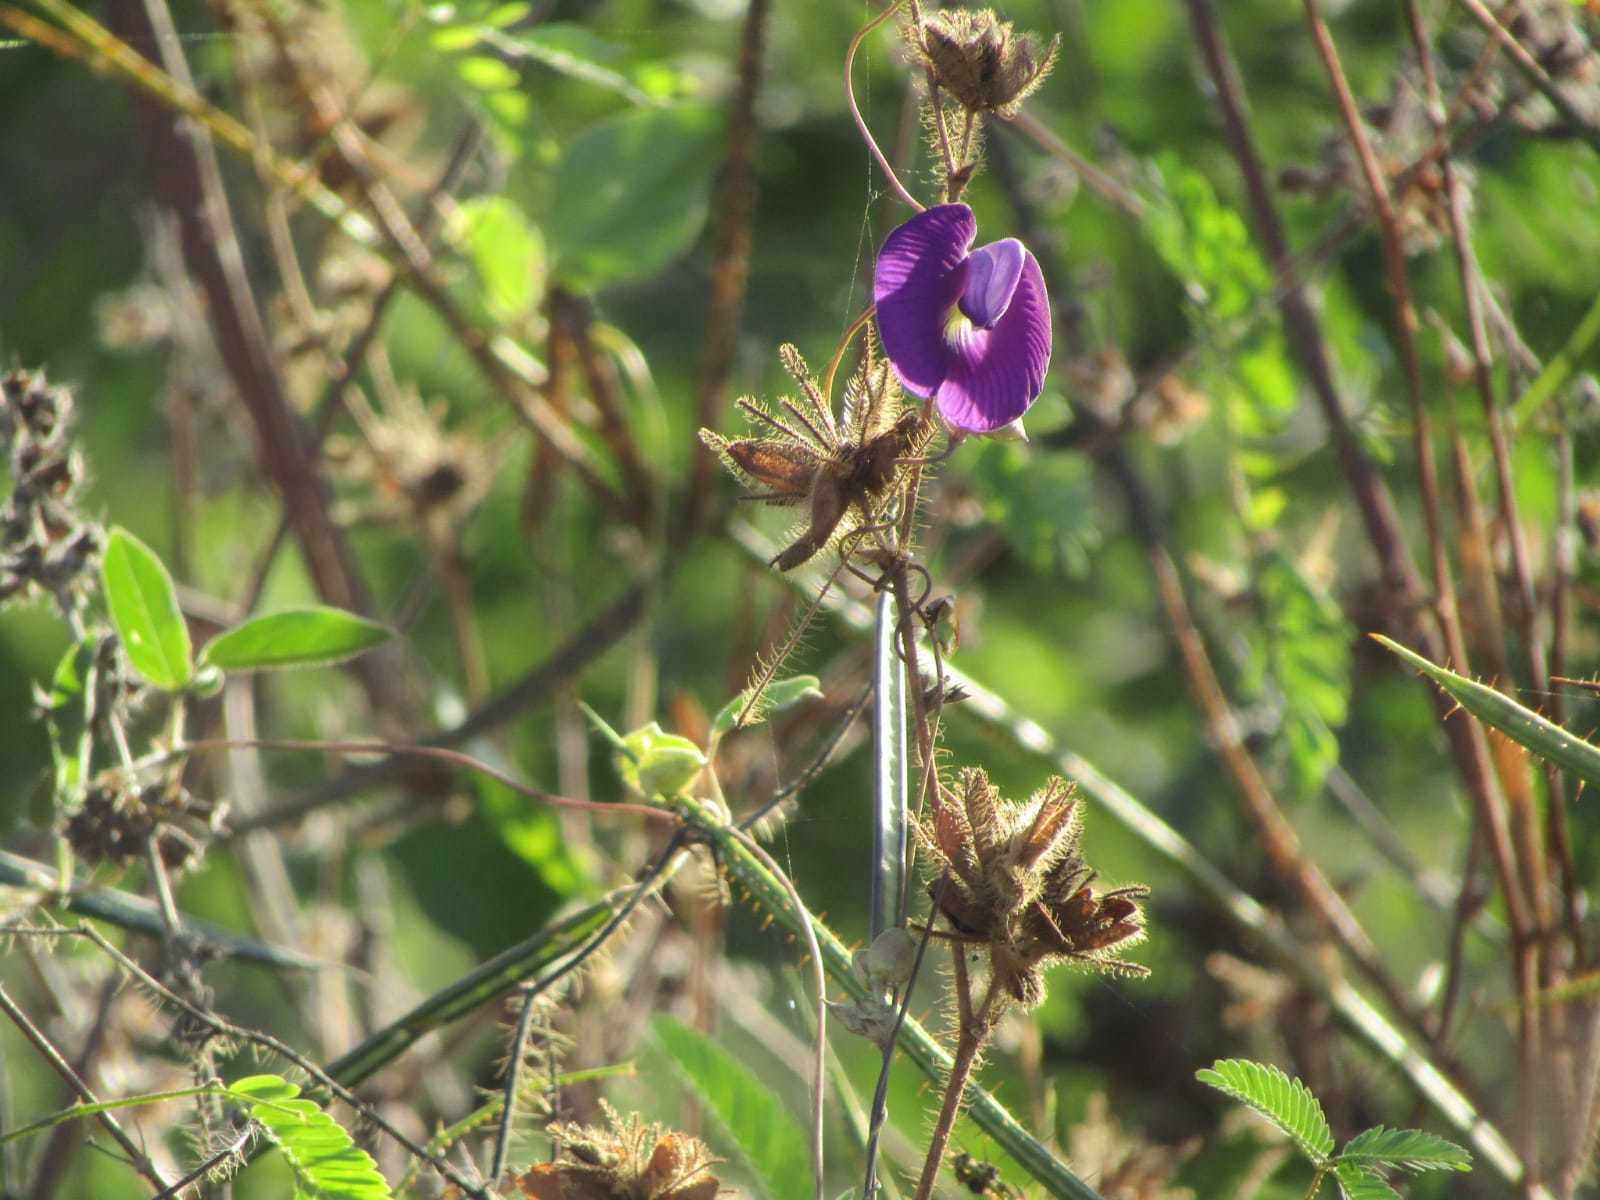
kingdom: Plantae
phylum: Tracheophyta
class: Magnoliopsida
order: Fabales
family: Fabaceae
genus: Centrosema
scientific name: Centrosema brasilianum
